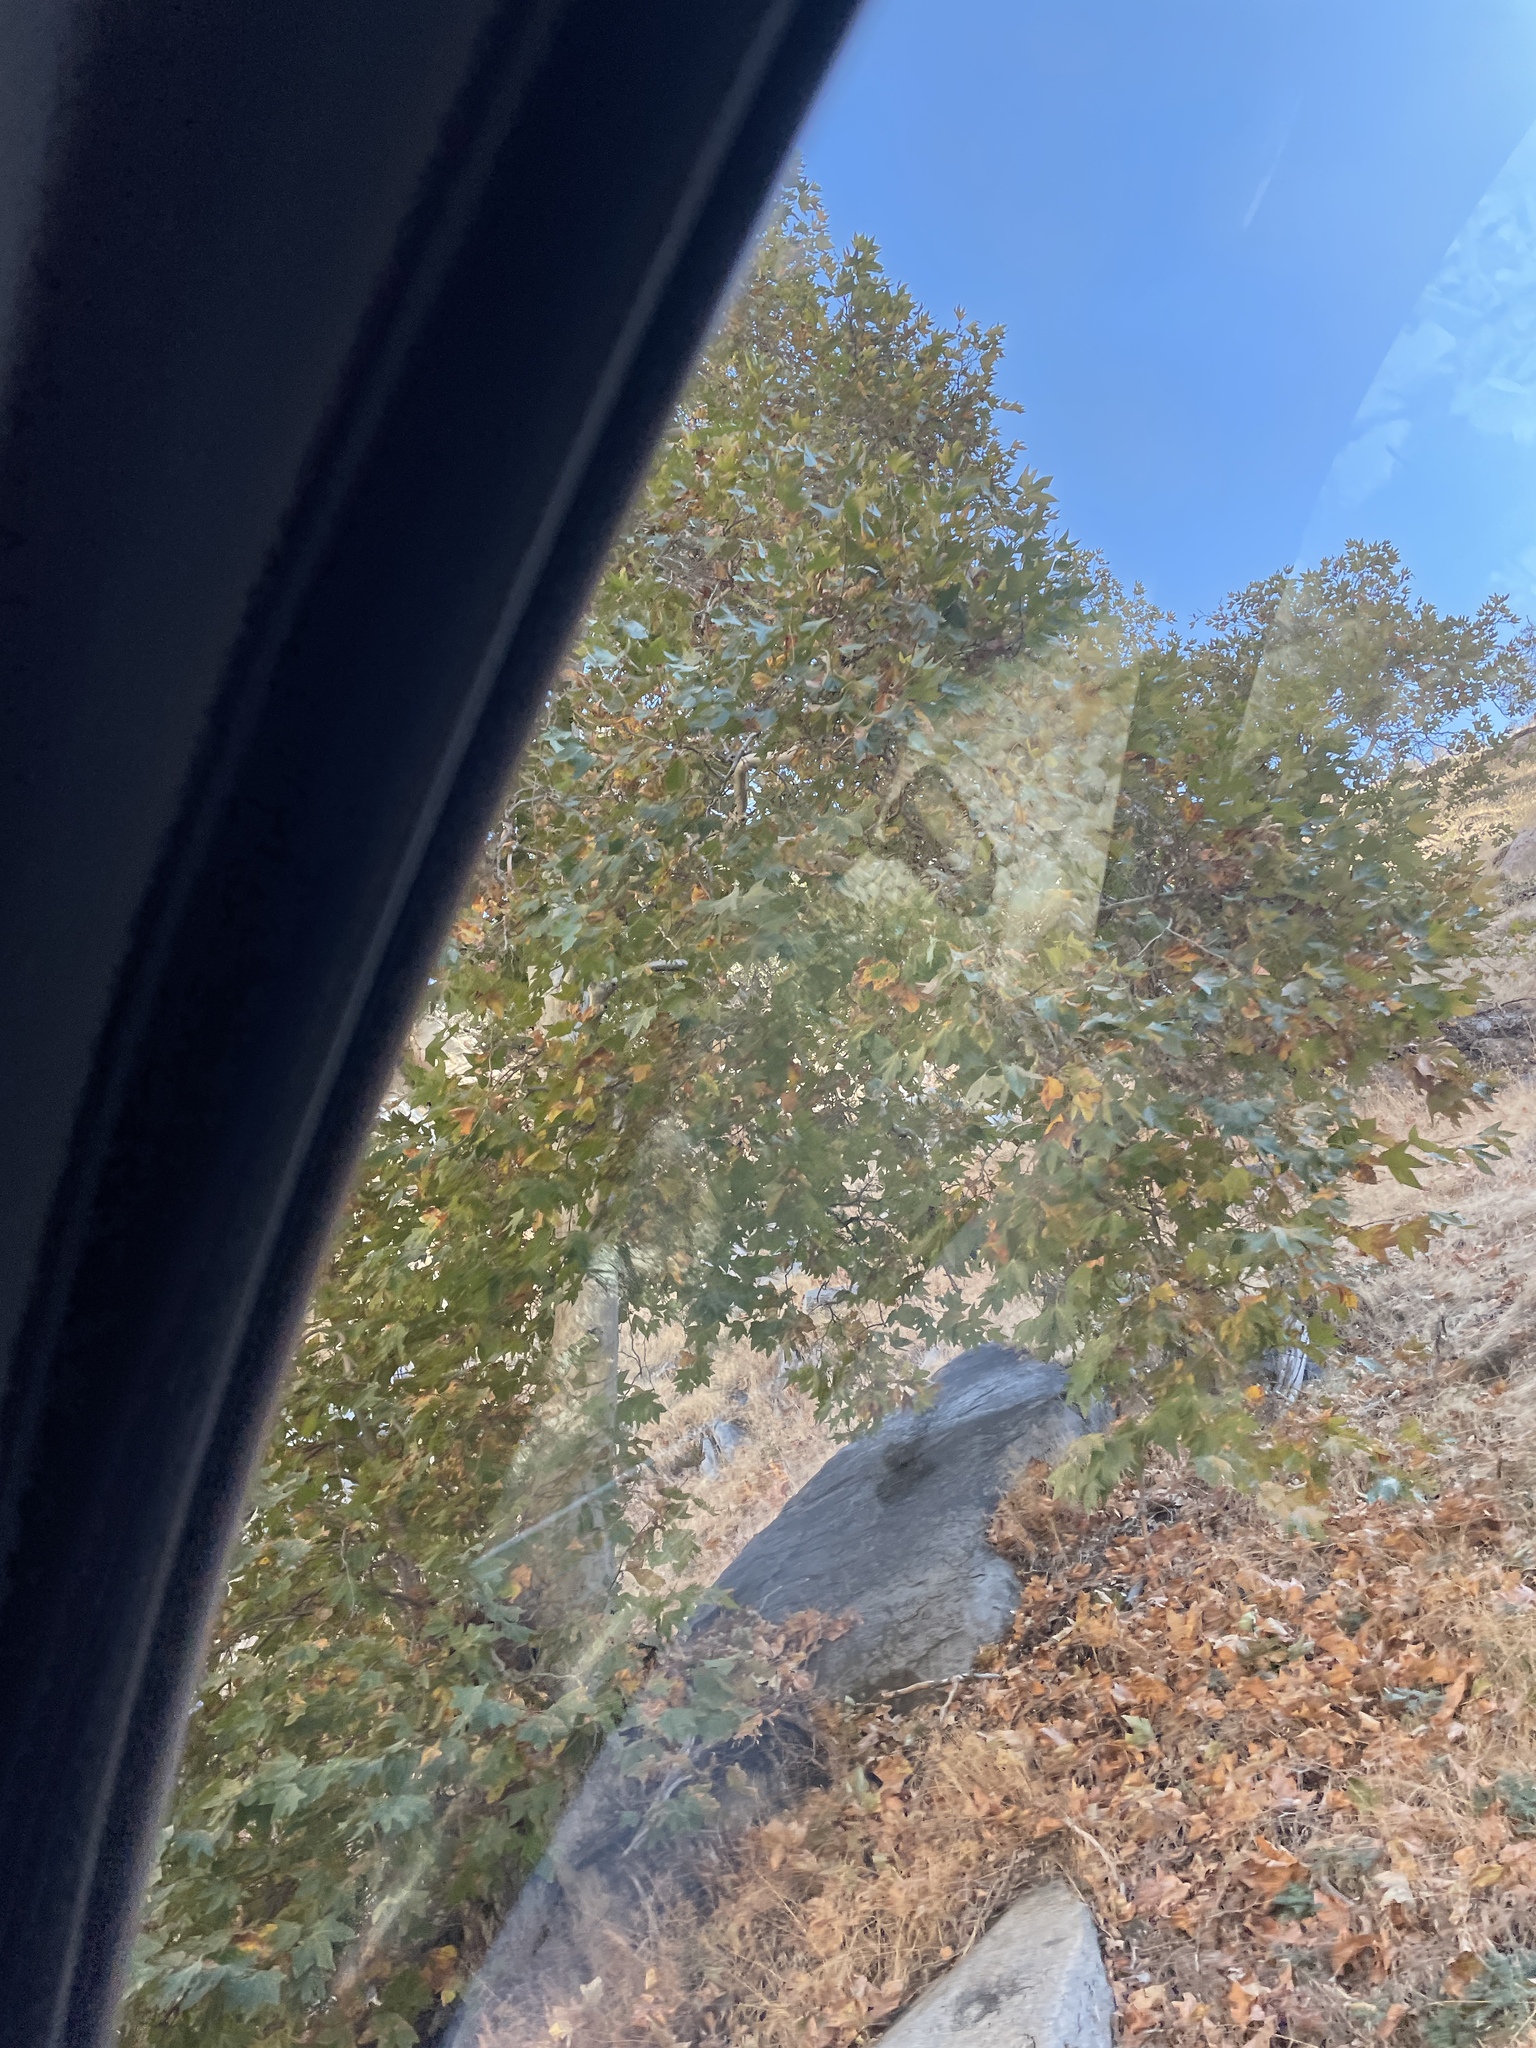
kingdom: Plantae
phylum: Tracheophyta
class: Magnoliopsida
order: Proteales
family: Platanaceae
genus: Platanus
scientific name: Platanus racemosa
